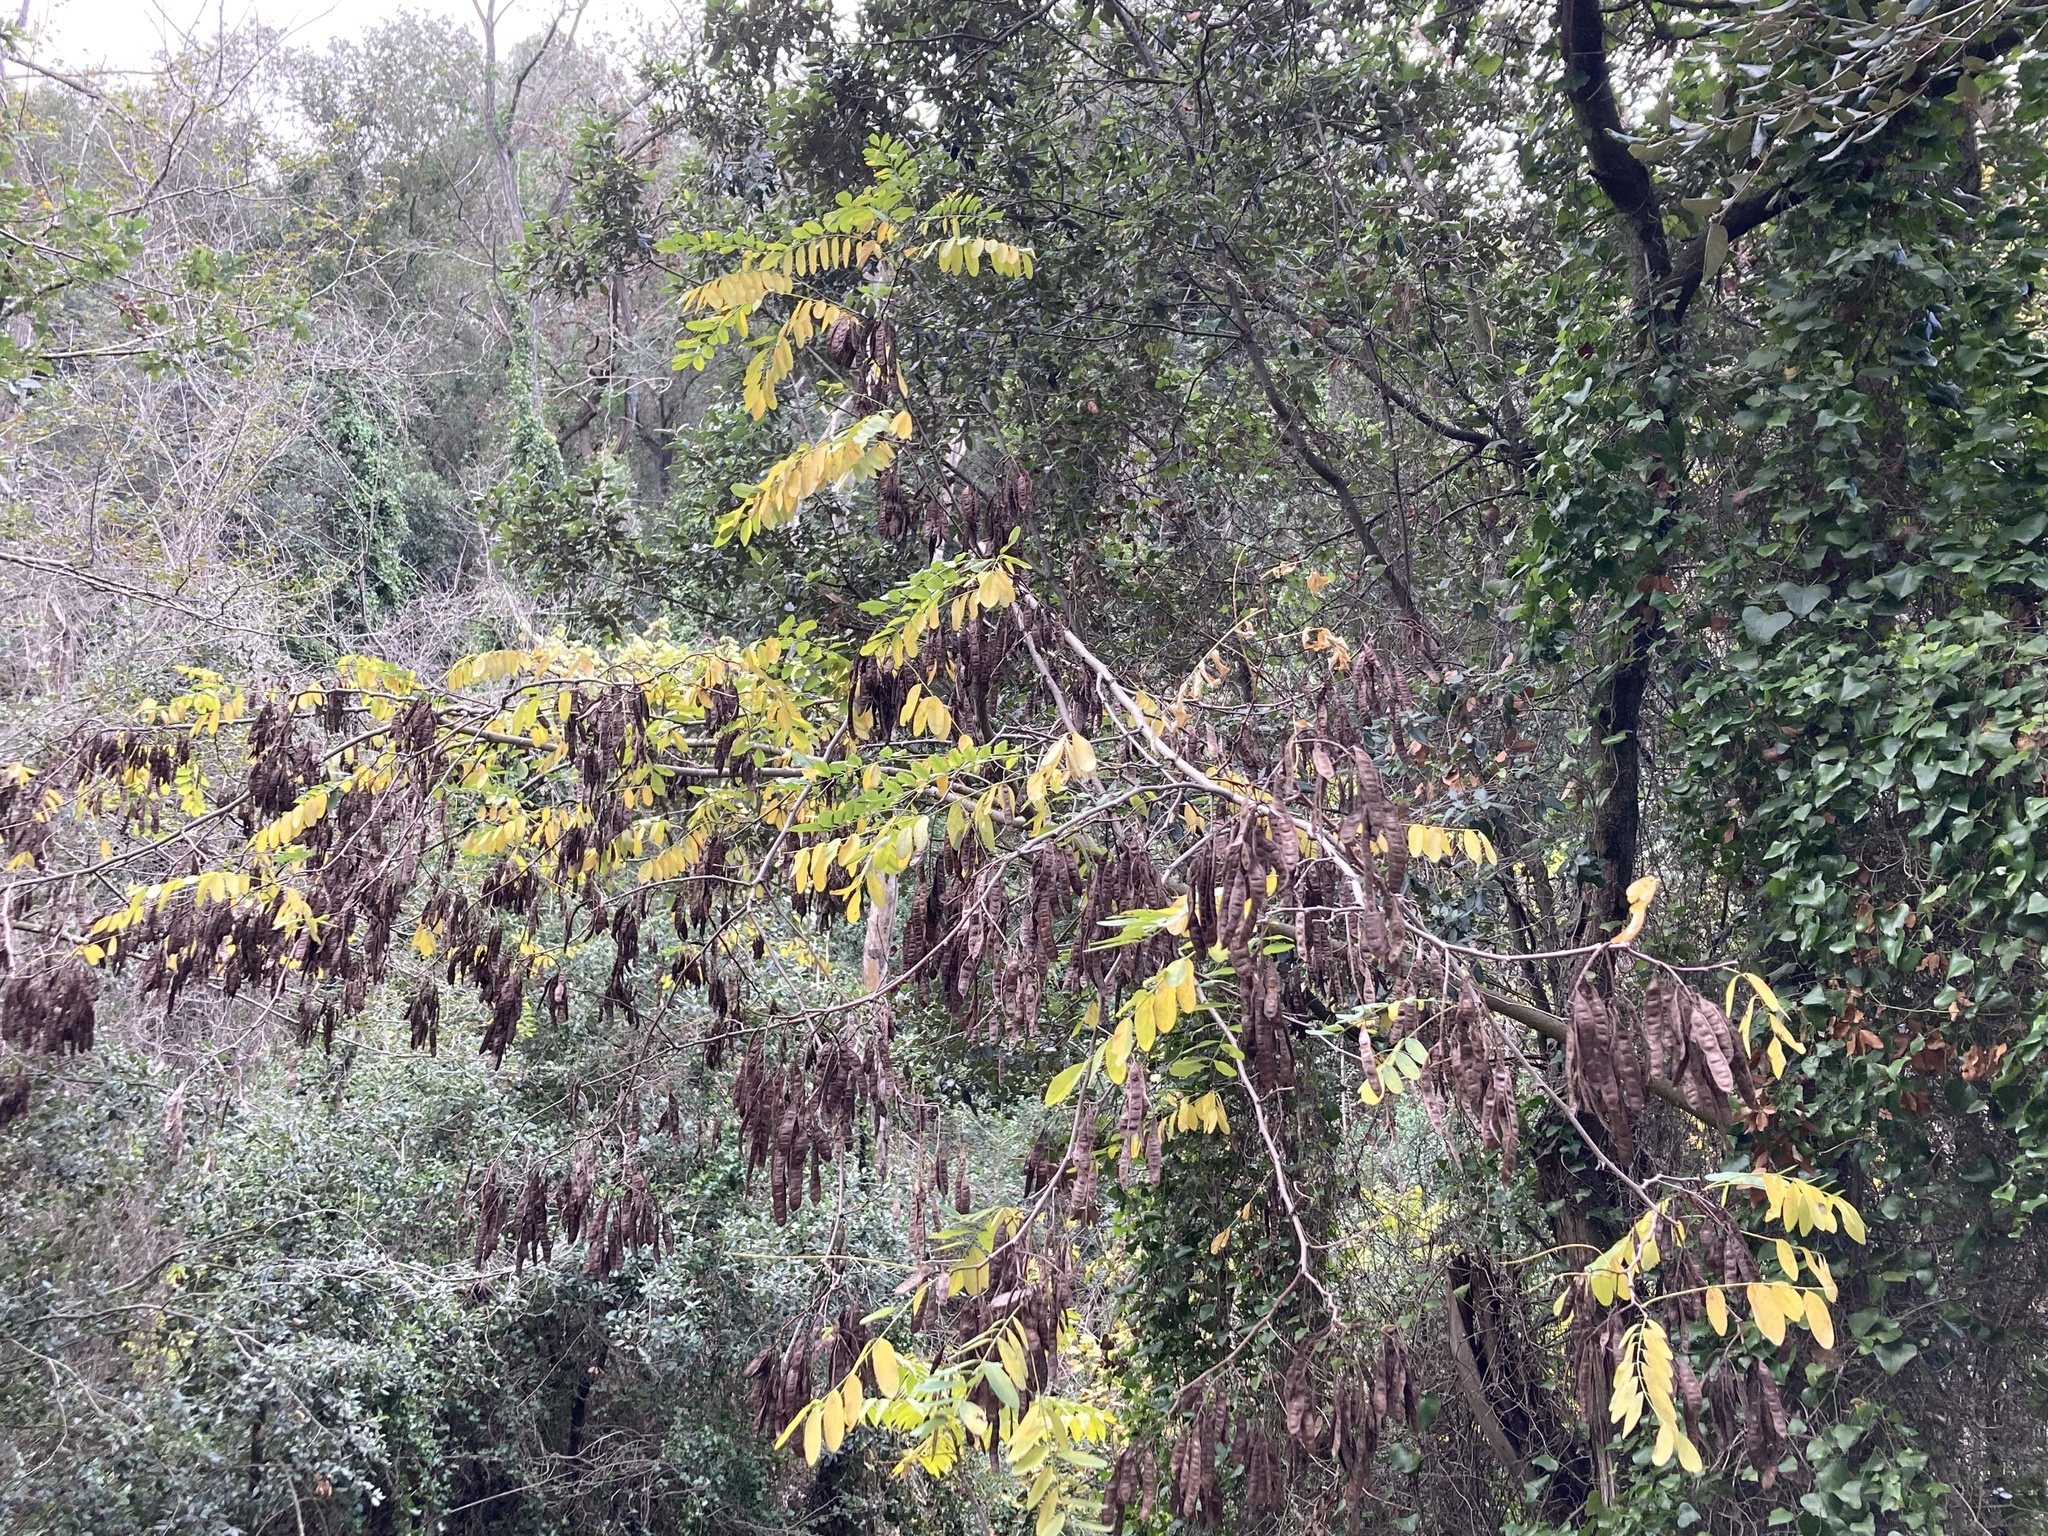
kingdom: Plantae
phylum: Tracheophyta
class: Magnoliopsida
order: Fabales
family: Fabaceae
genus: Robinia
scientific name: Robinia pseudoacacia
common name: Black locust
